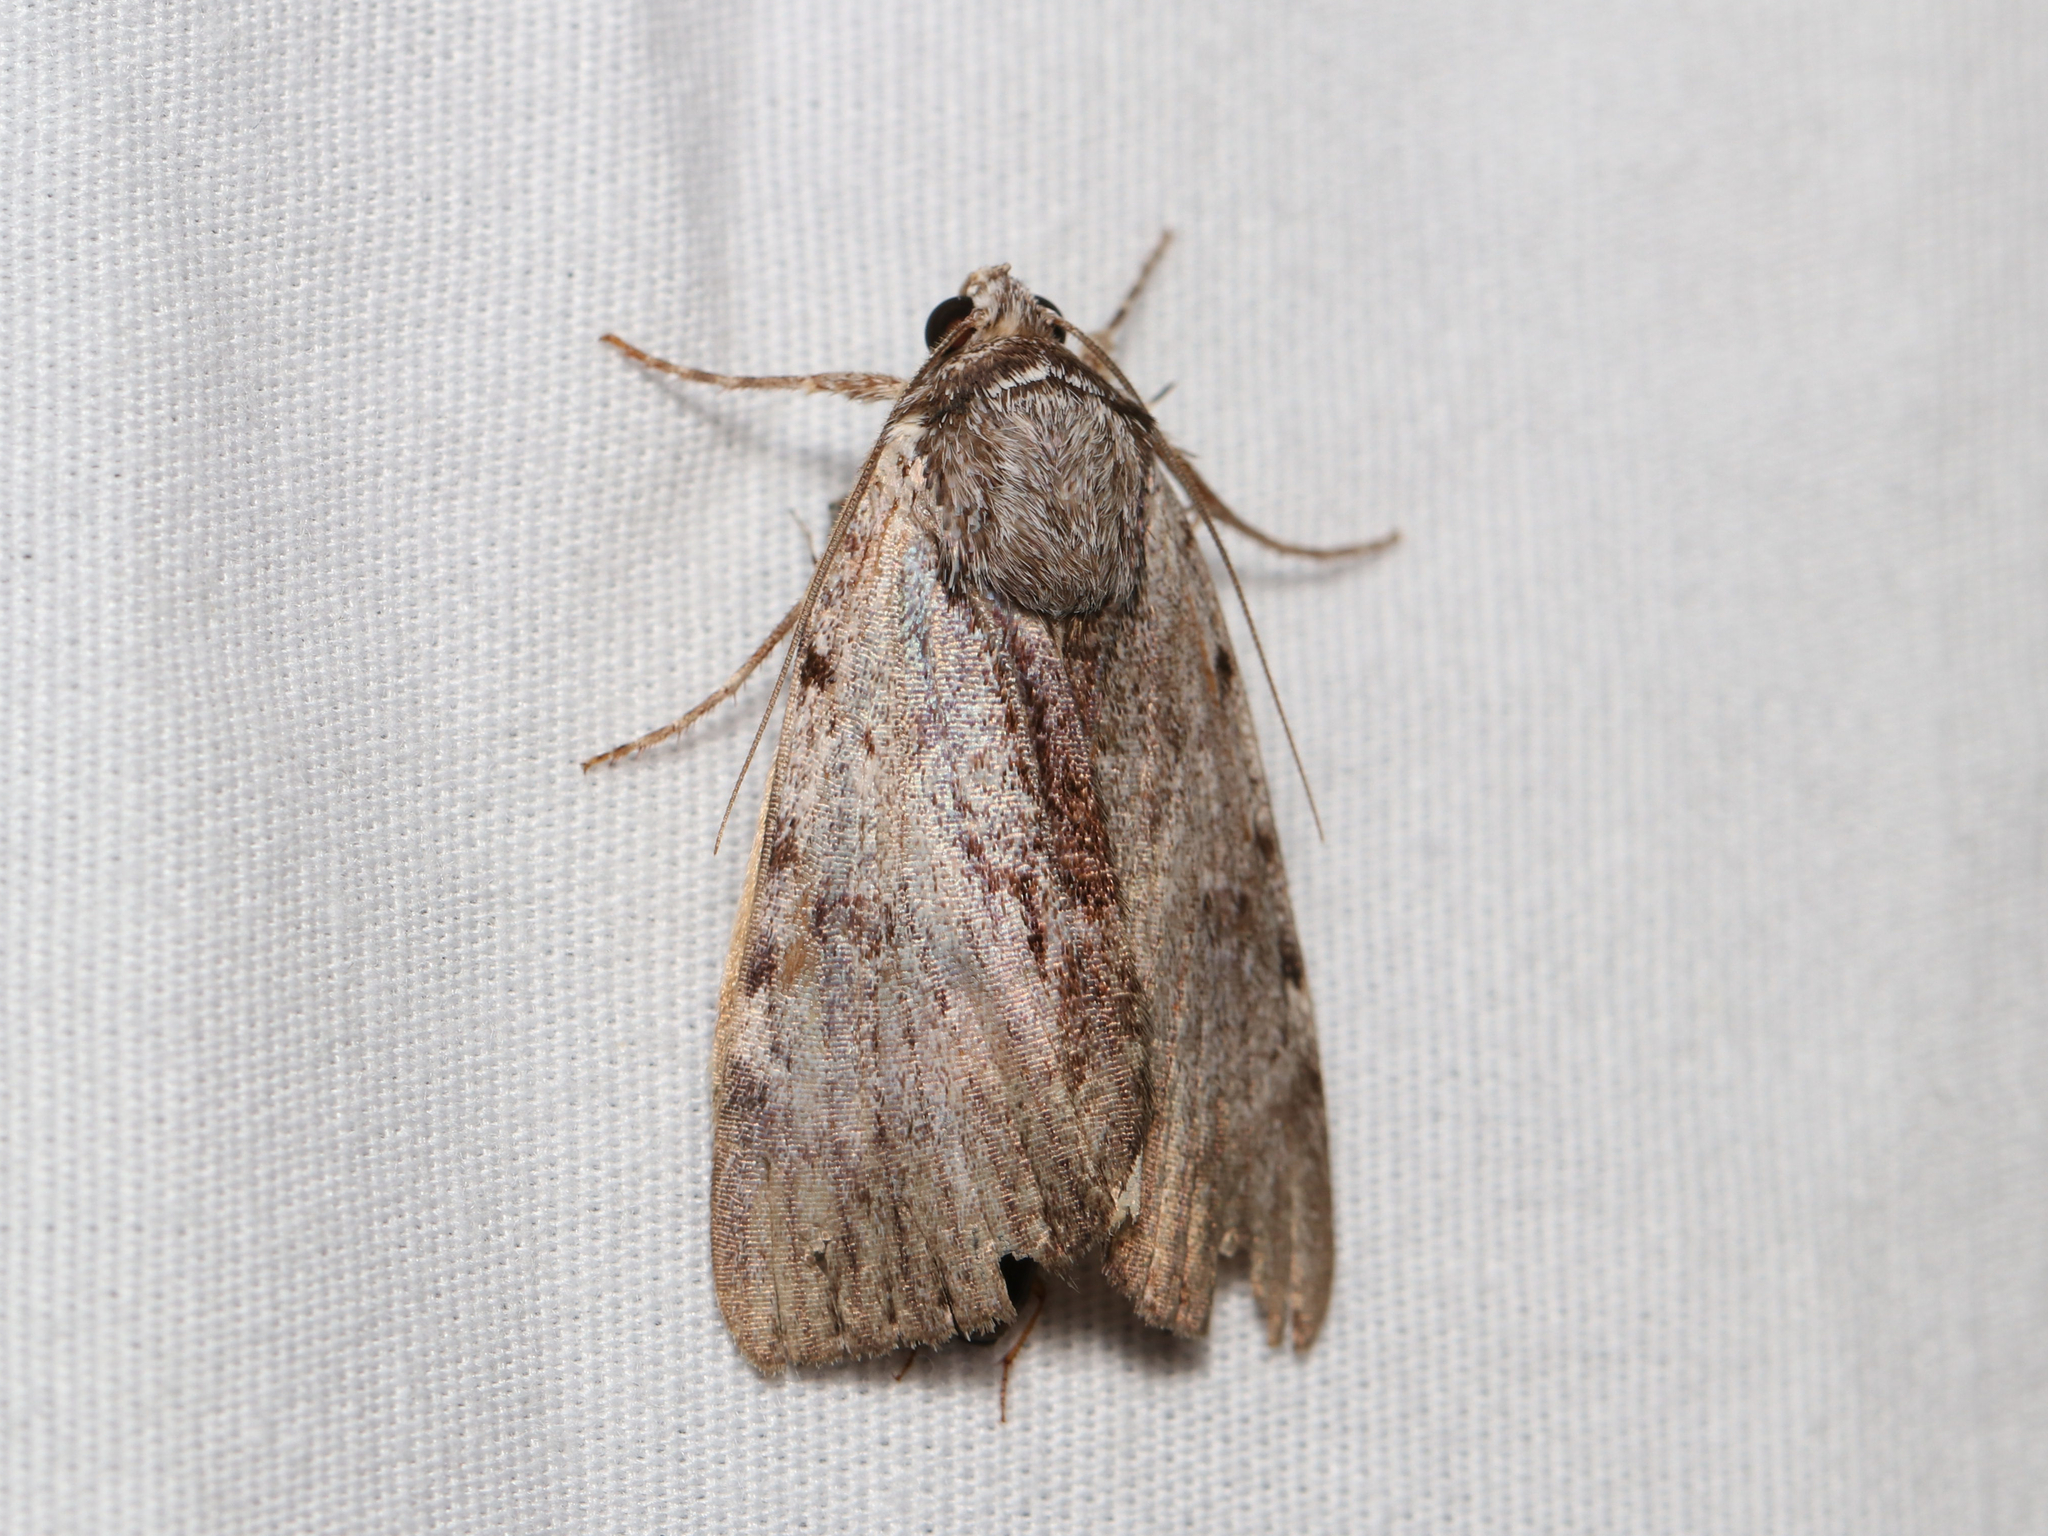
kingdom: Animalia
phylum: Arthropoda
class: Insecta
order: Lepidoptera
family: Erebidae
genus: Catocala
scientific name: Catocala gracilis
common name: Graceful underwing
